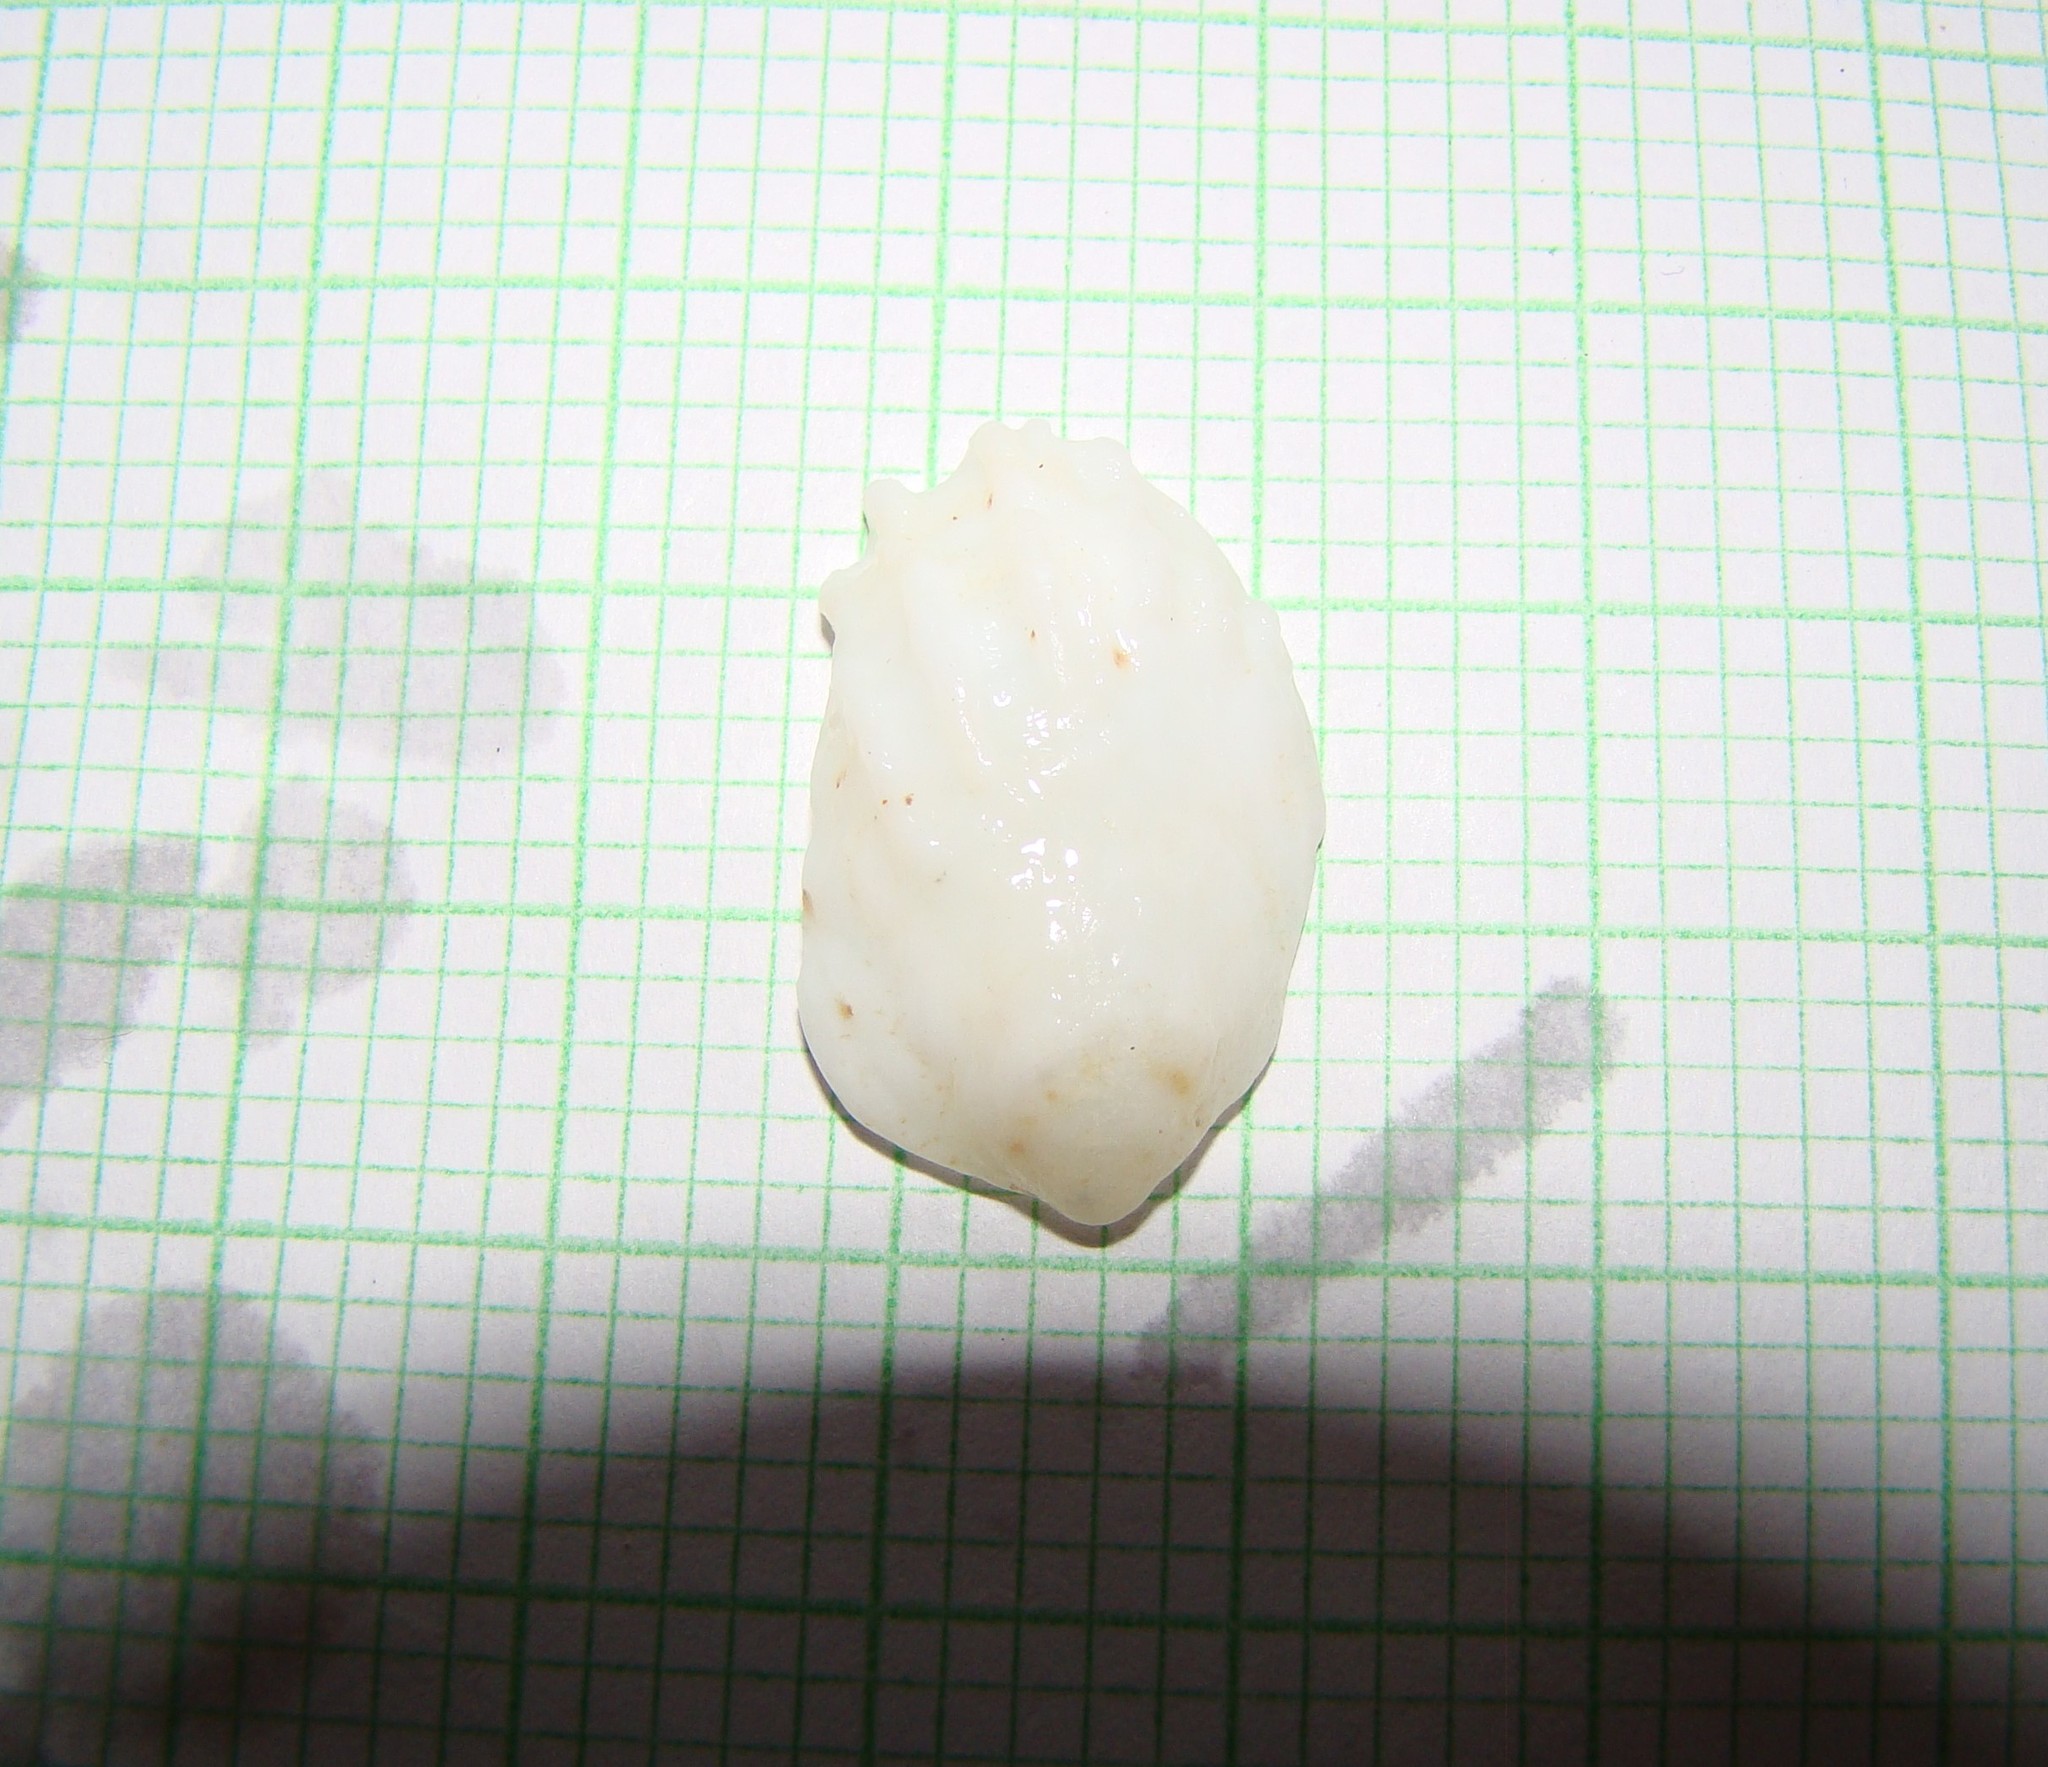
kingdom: Animalia
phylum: Mollusca
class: Gastropoda
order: Littorinimorpha
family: Calyptraeidae
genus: Maoricrypta
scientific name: Maoricrypta costata
